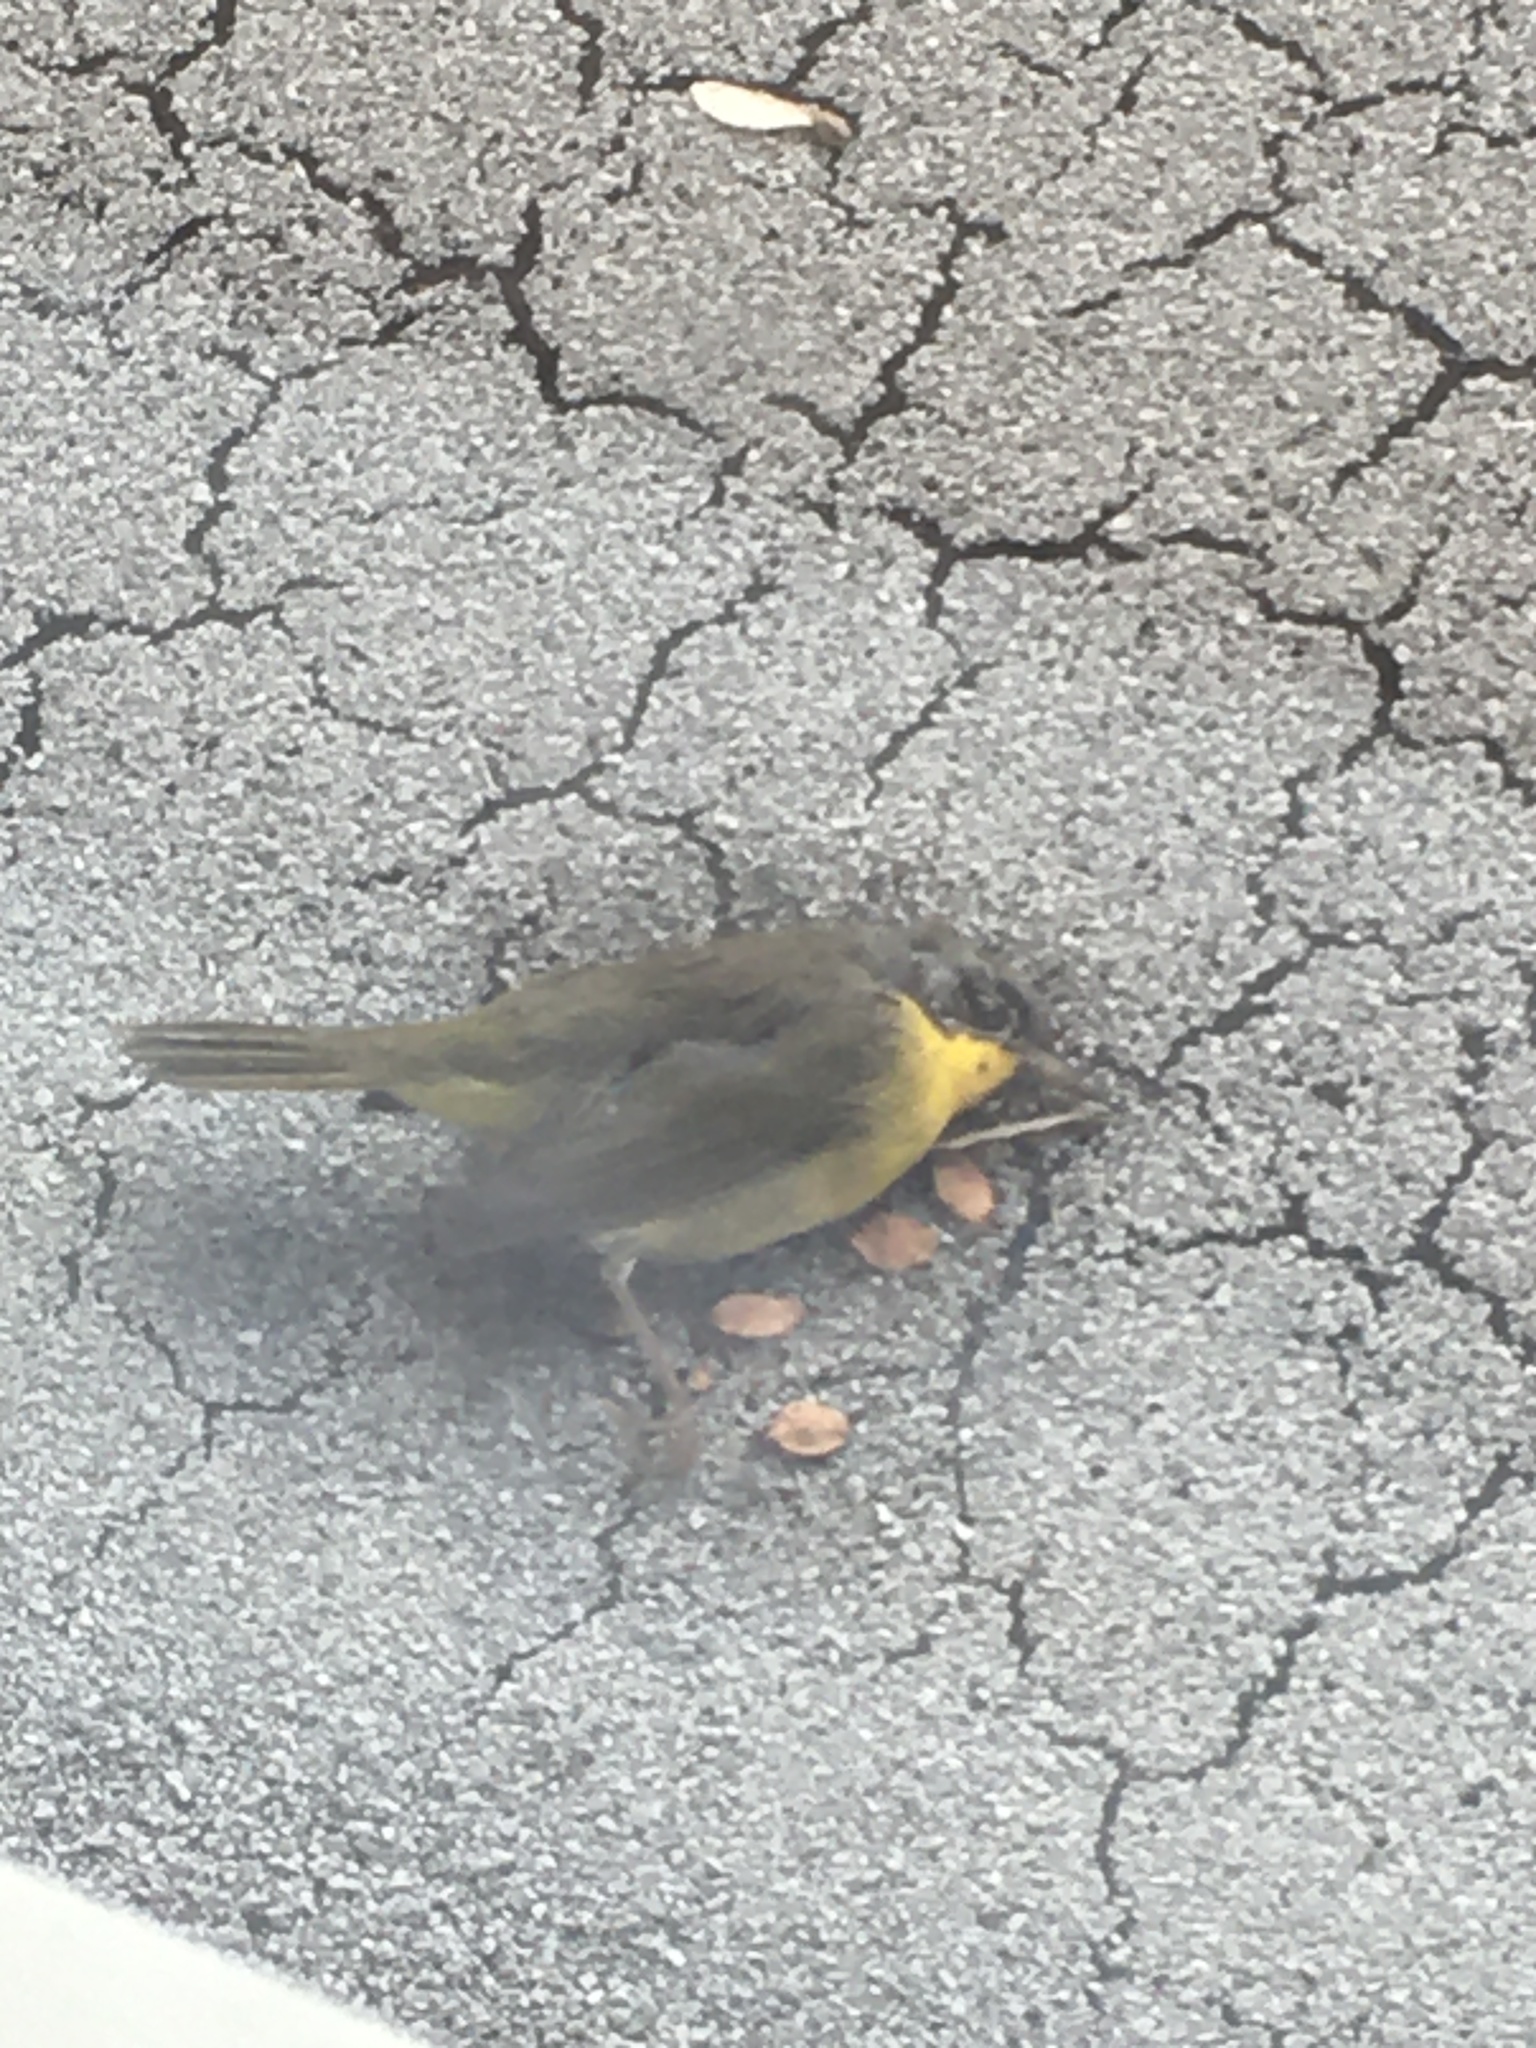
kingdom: Animalia
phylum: Chordata
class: Aves
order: Passeriformes
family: Parulidae
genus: Geothlypis
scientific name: Geothlypis trichas
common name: Common yellowthroat
